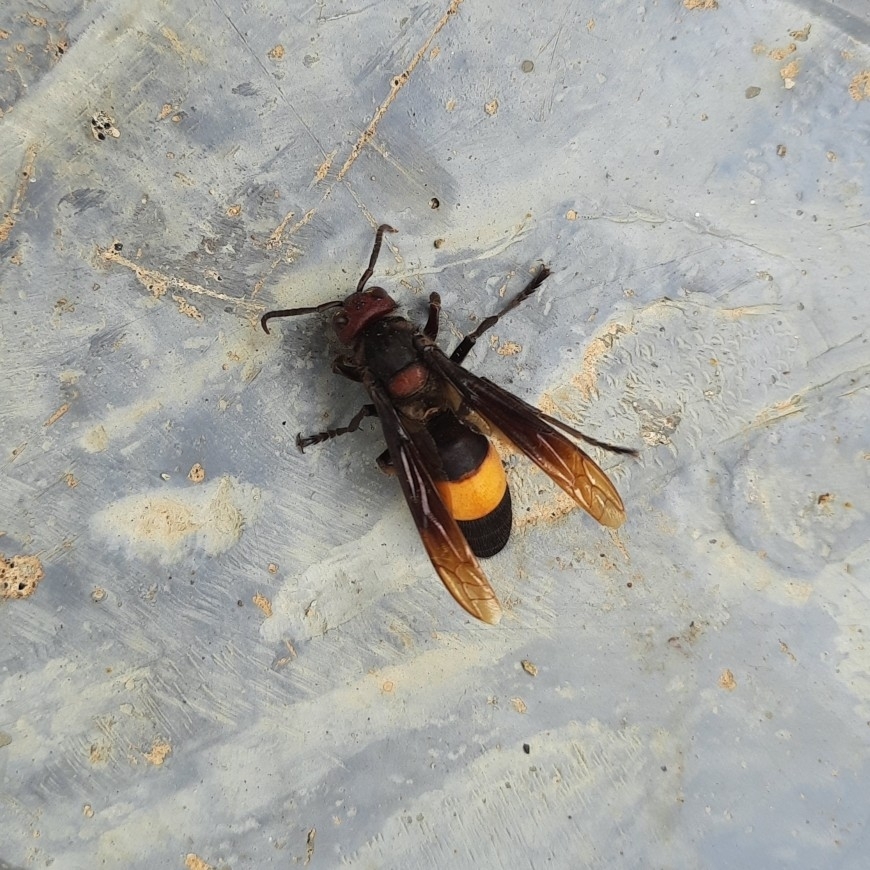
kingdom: Animalia
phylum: Arthropoda
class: Insecta
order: Hymenoptera
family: Vespidae
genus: Vespa
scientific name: Vespa tropica
